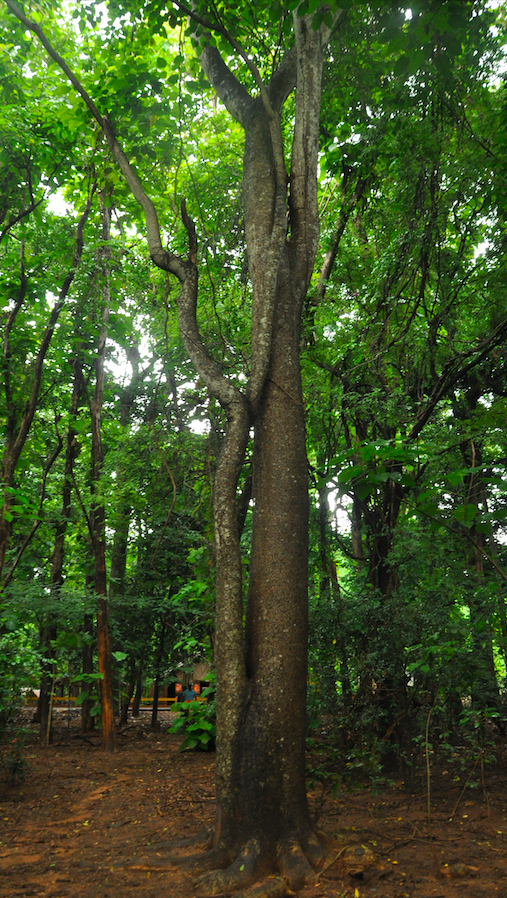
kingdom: Plantae
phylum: Tracheophyta
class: Magnoliopsida
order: Malpighiales
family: Euphorbiaceae
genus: Hura
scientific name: Hura crepitans
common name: Sandboxtree
